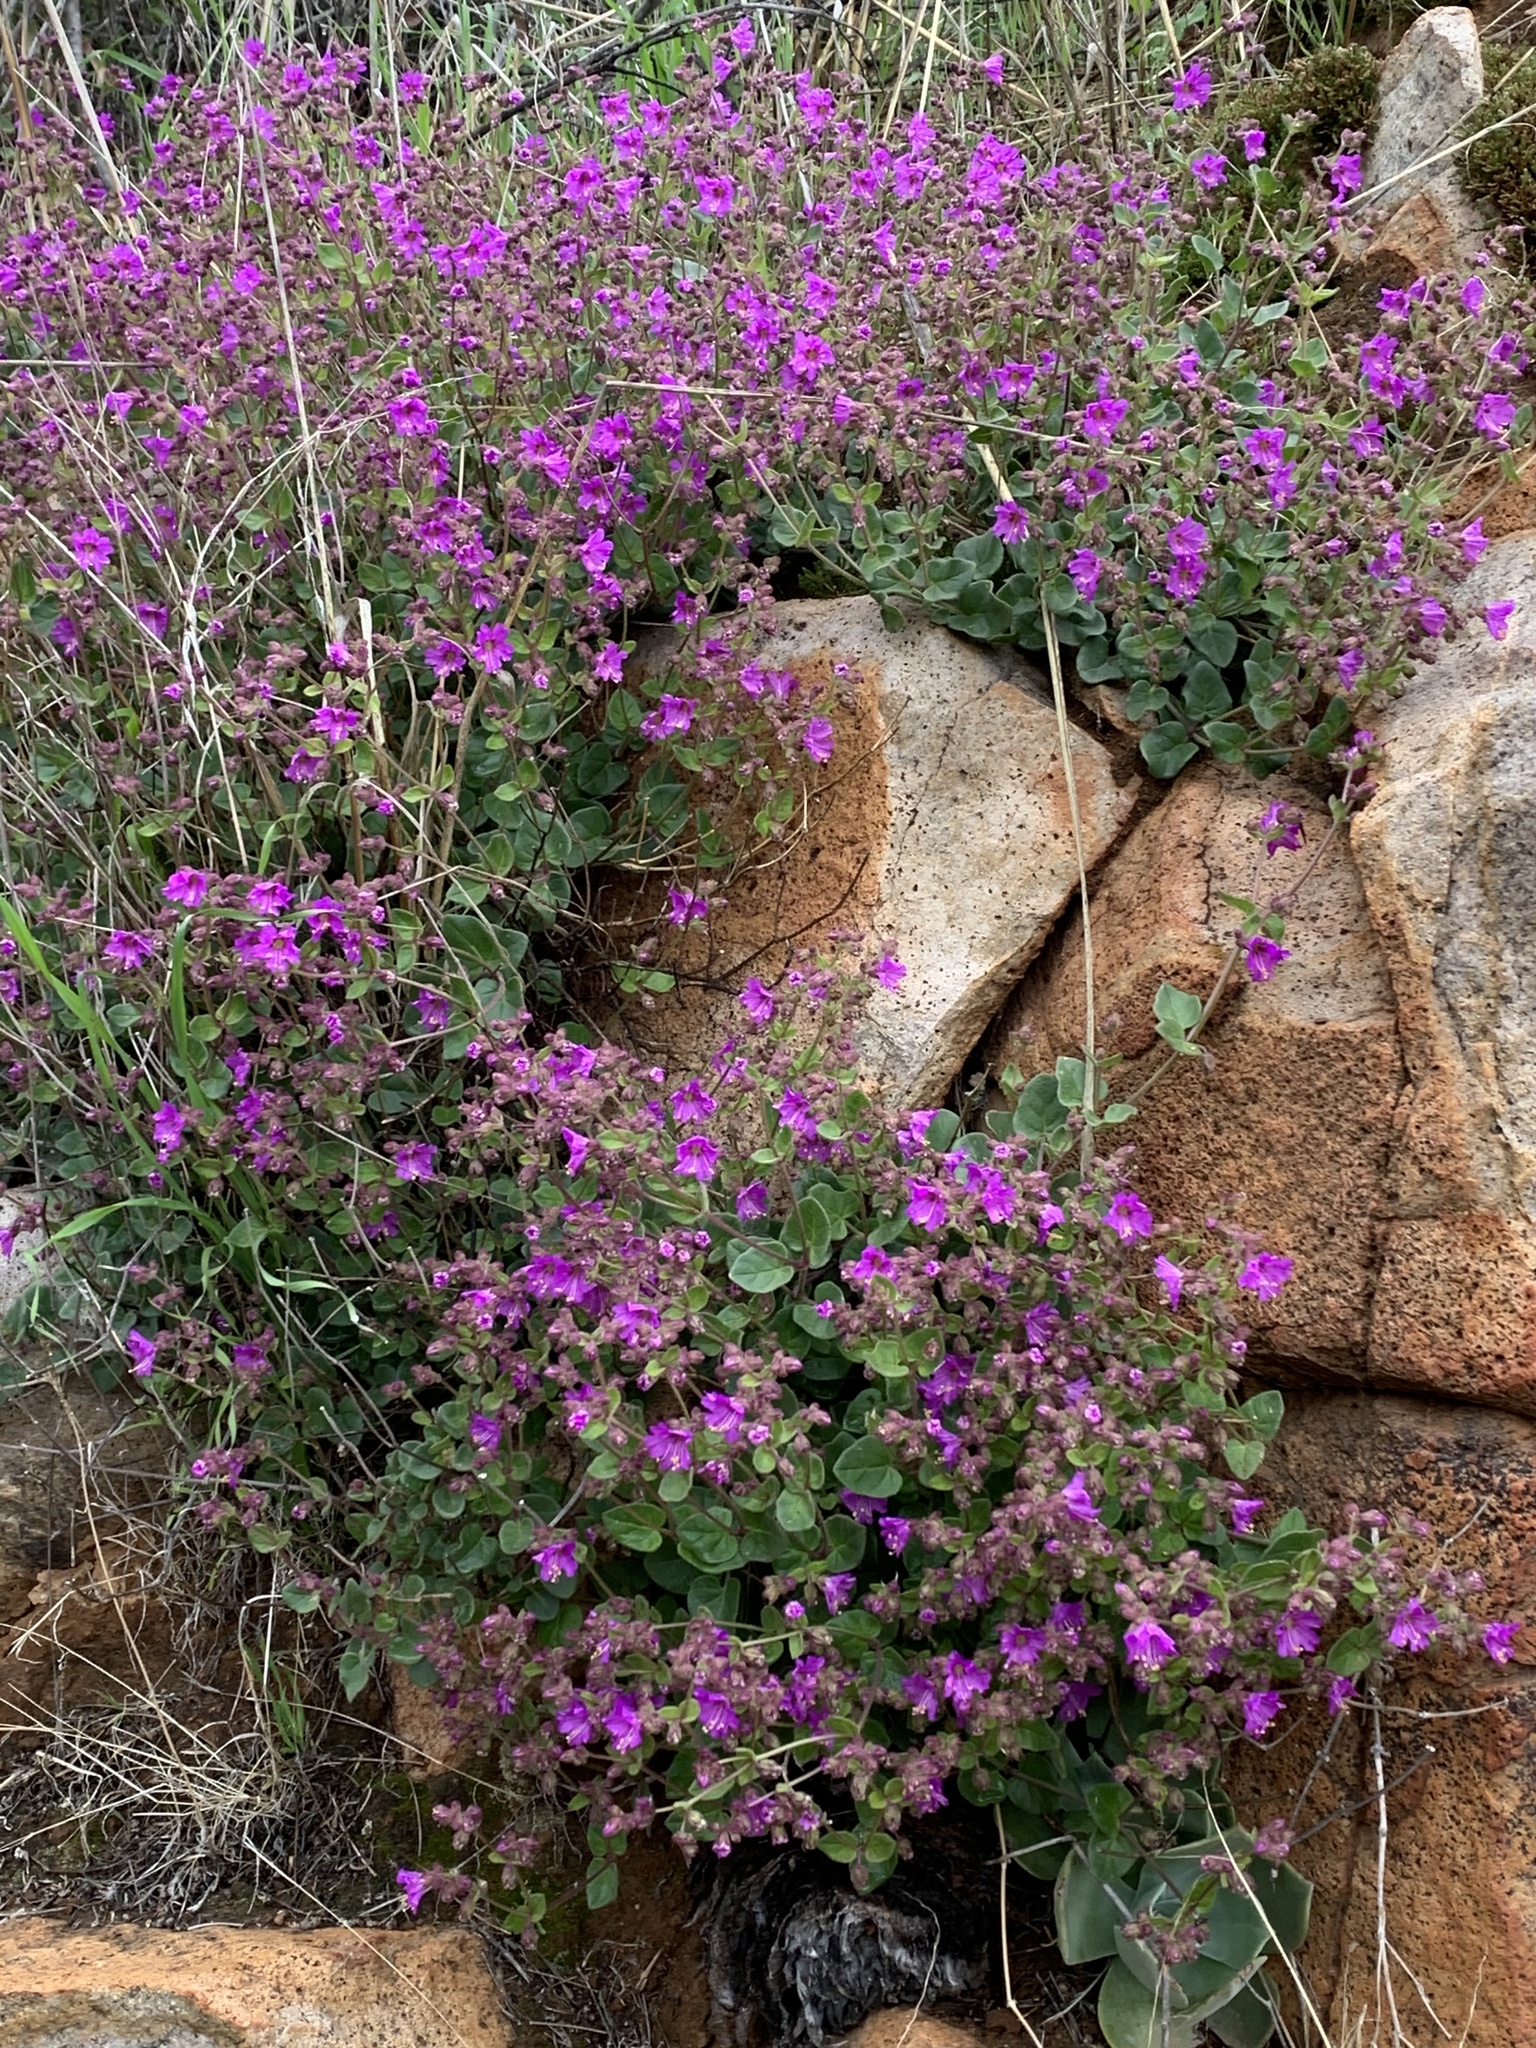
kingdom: Plantae
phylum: Tracheophyta
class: Magnoliopsida
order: Caryophyllales
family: Nyctaginaceae
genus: Mirabilis
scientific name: Mirabilis laevis
